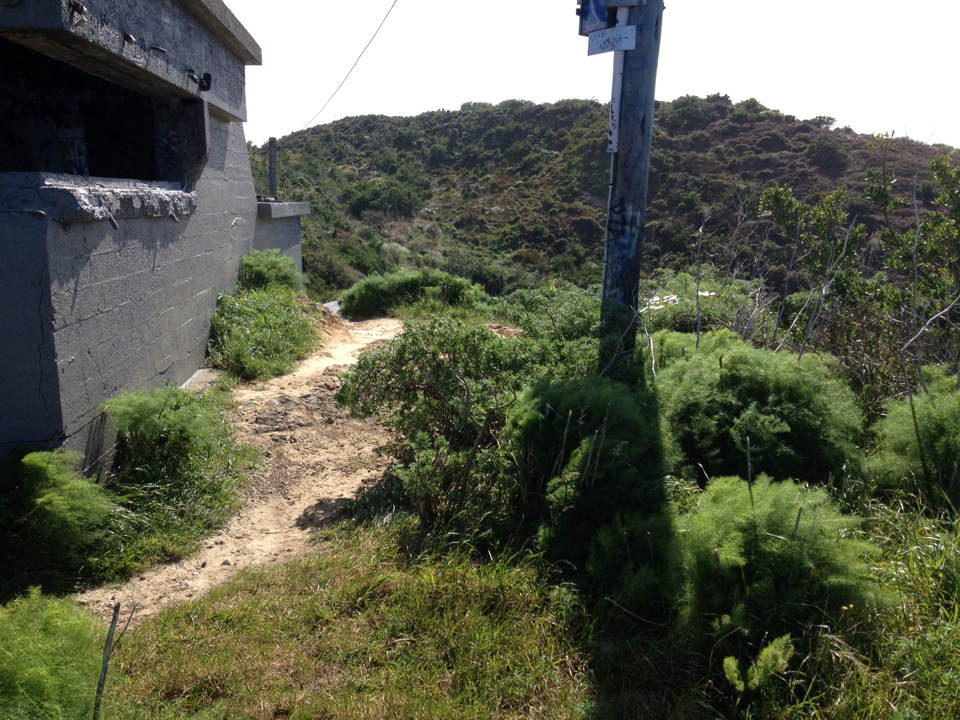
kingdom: Plantae
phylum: Tracheophyta
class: Magnoliopsida
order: Apiales
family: Apiaceae
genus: Foeniculum
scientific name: Foeniculum vulgare
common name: Fennel
